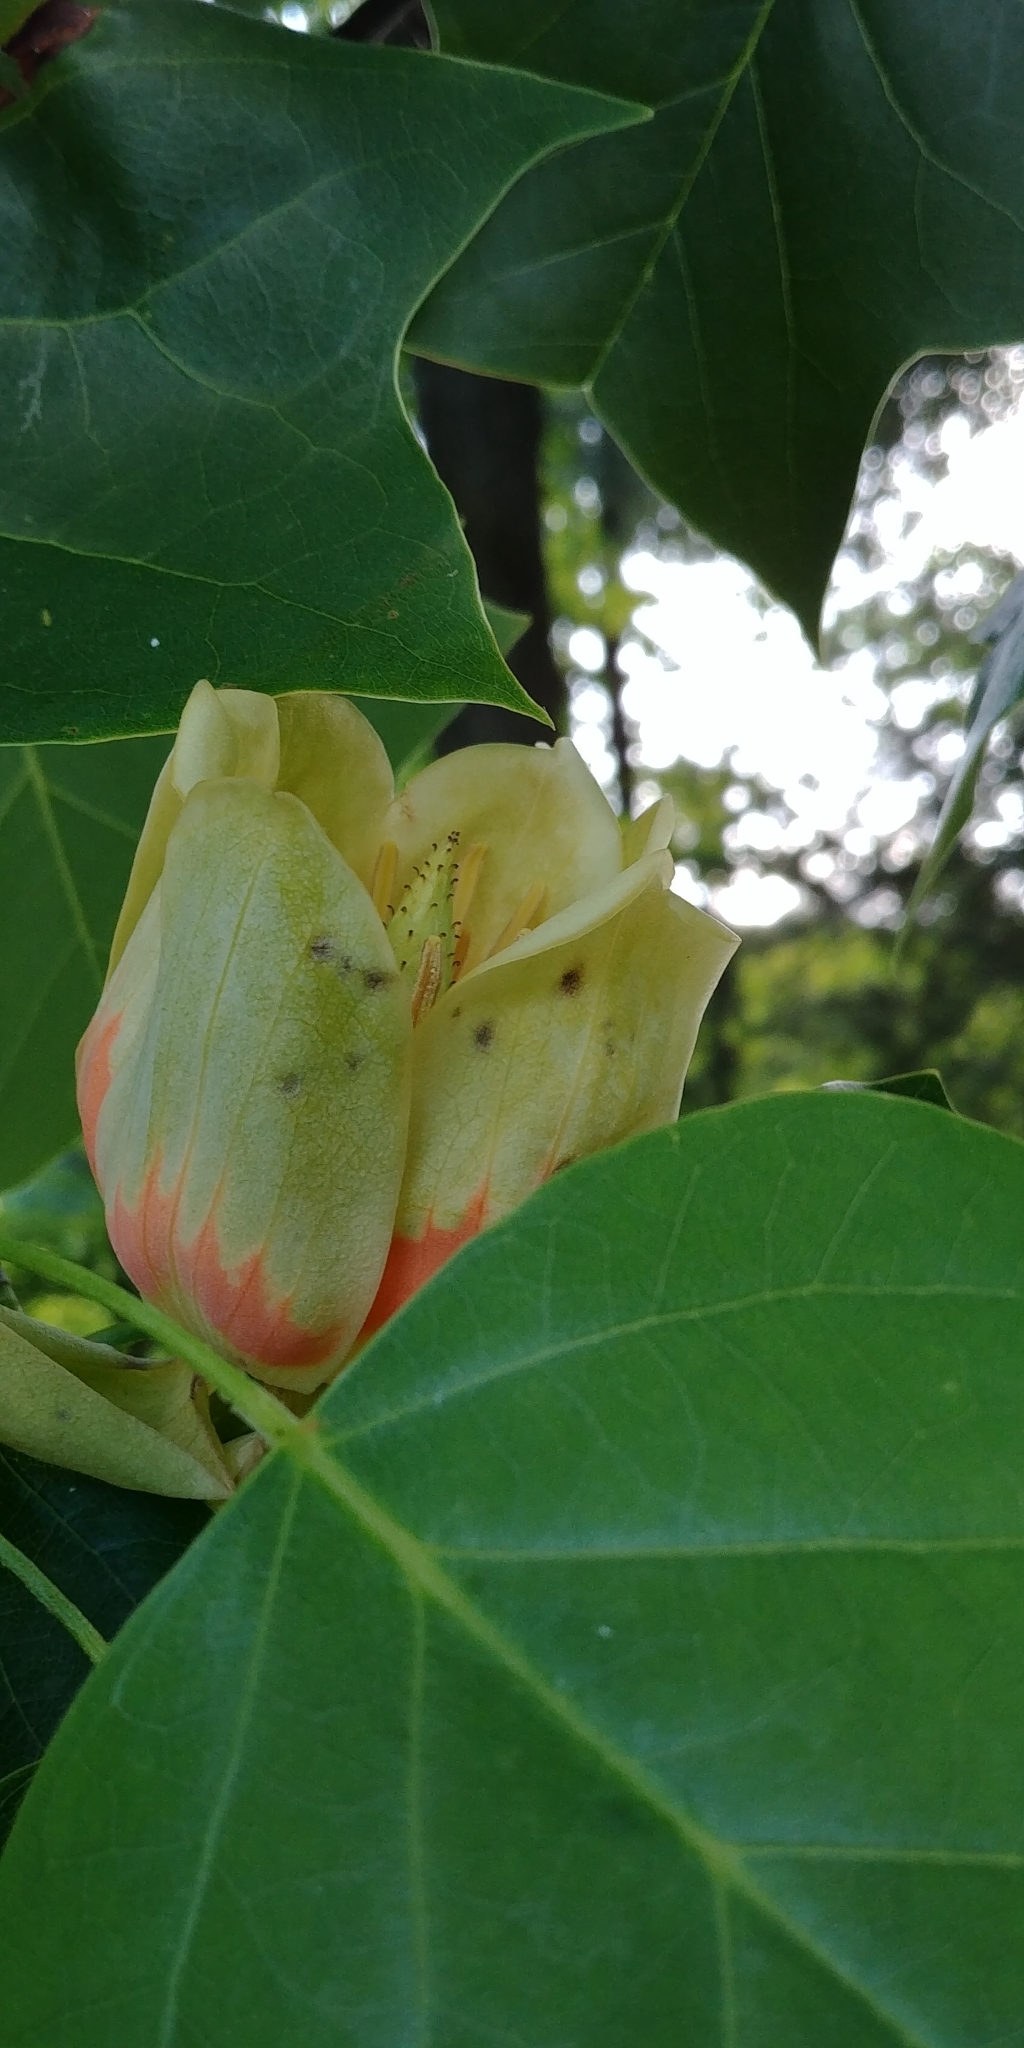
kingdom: Plantae
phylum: Tracheophyta
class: Magnoliopsida
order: Magnoliales
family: Magnoliaceae
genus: Liriodendron
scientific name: Liriodendron tulipifera
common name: Tulip tree
